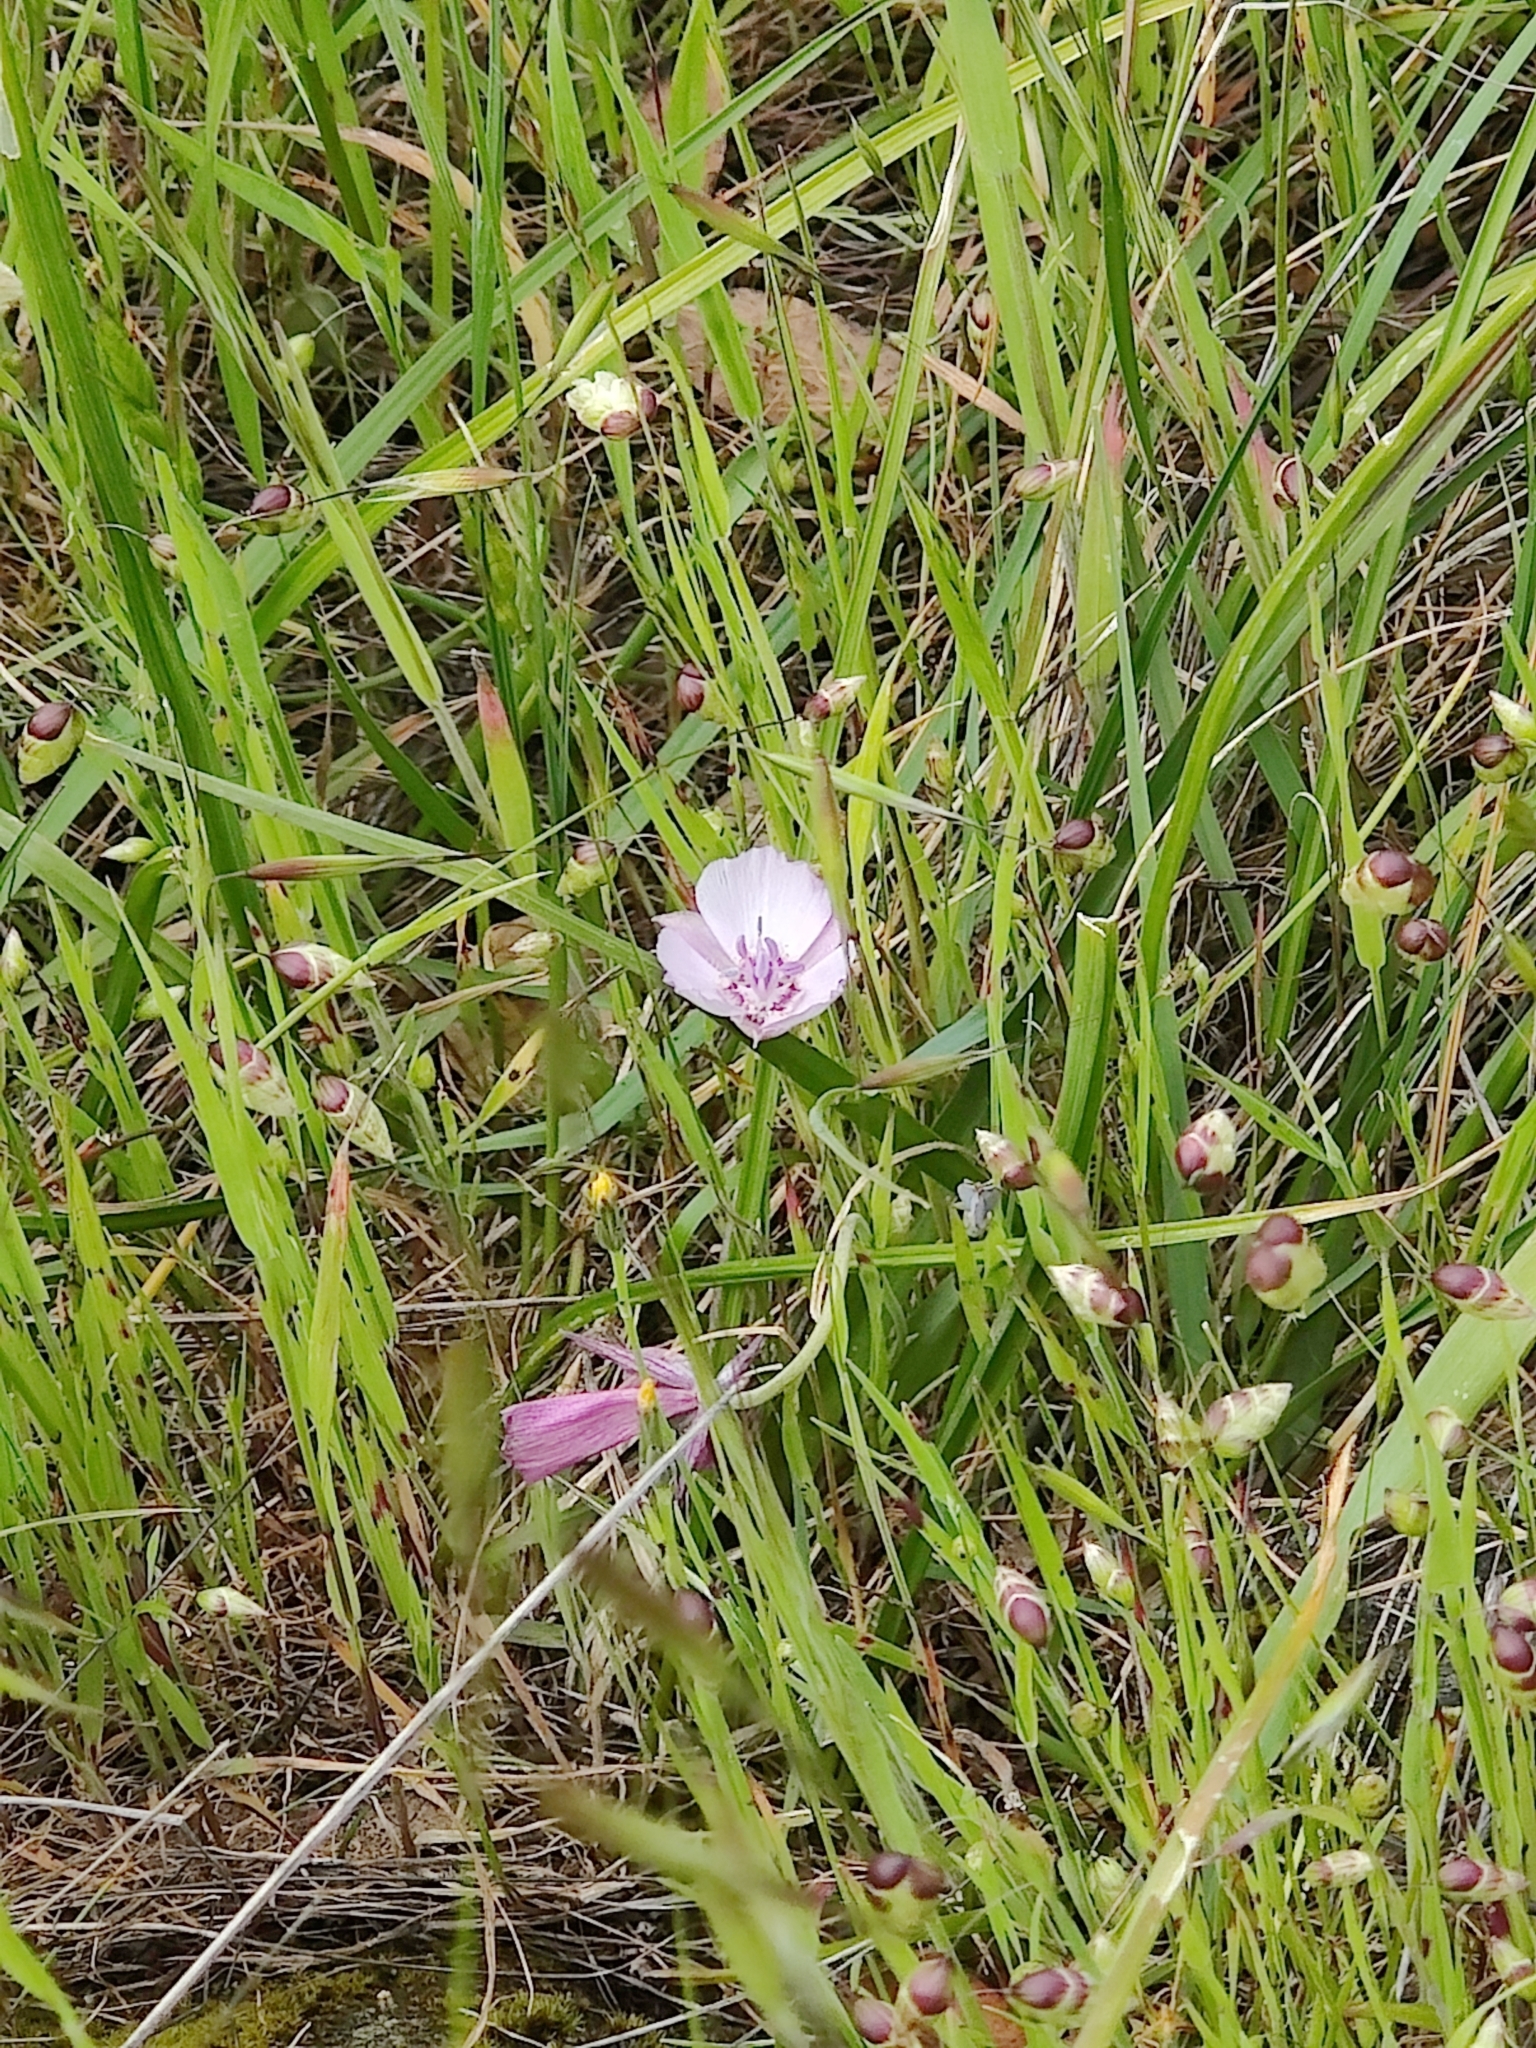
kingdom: Plantae
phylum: Tracheophyta
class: Liliopsida
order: Liliales
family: Liliaceae
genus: Calochortus
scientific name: Calochortus umbellatus
